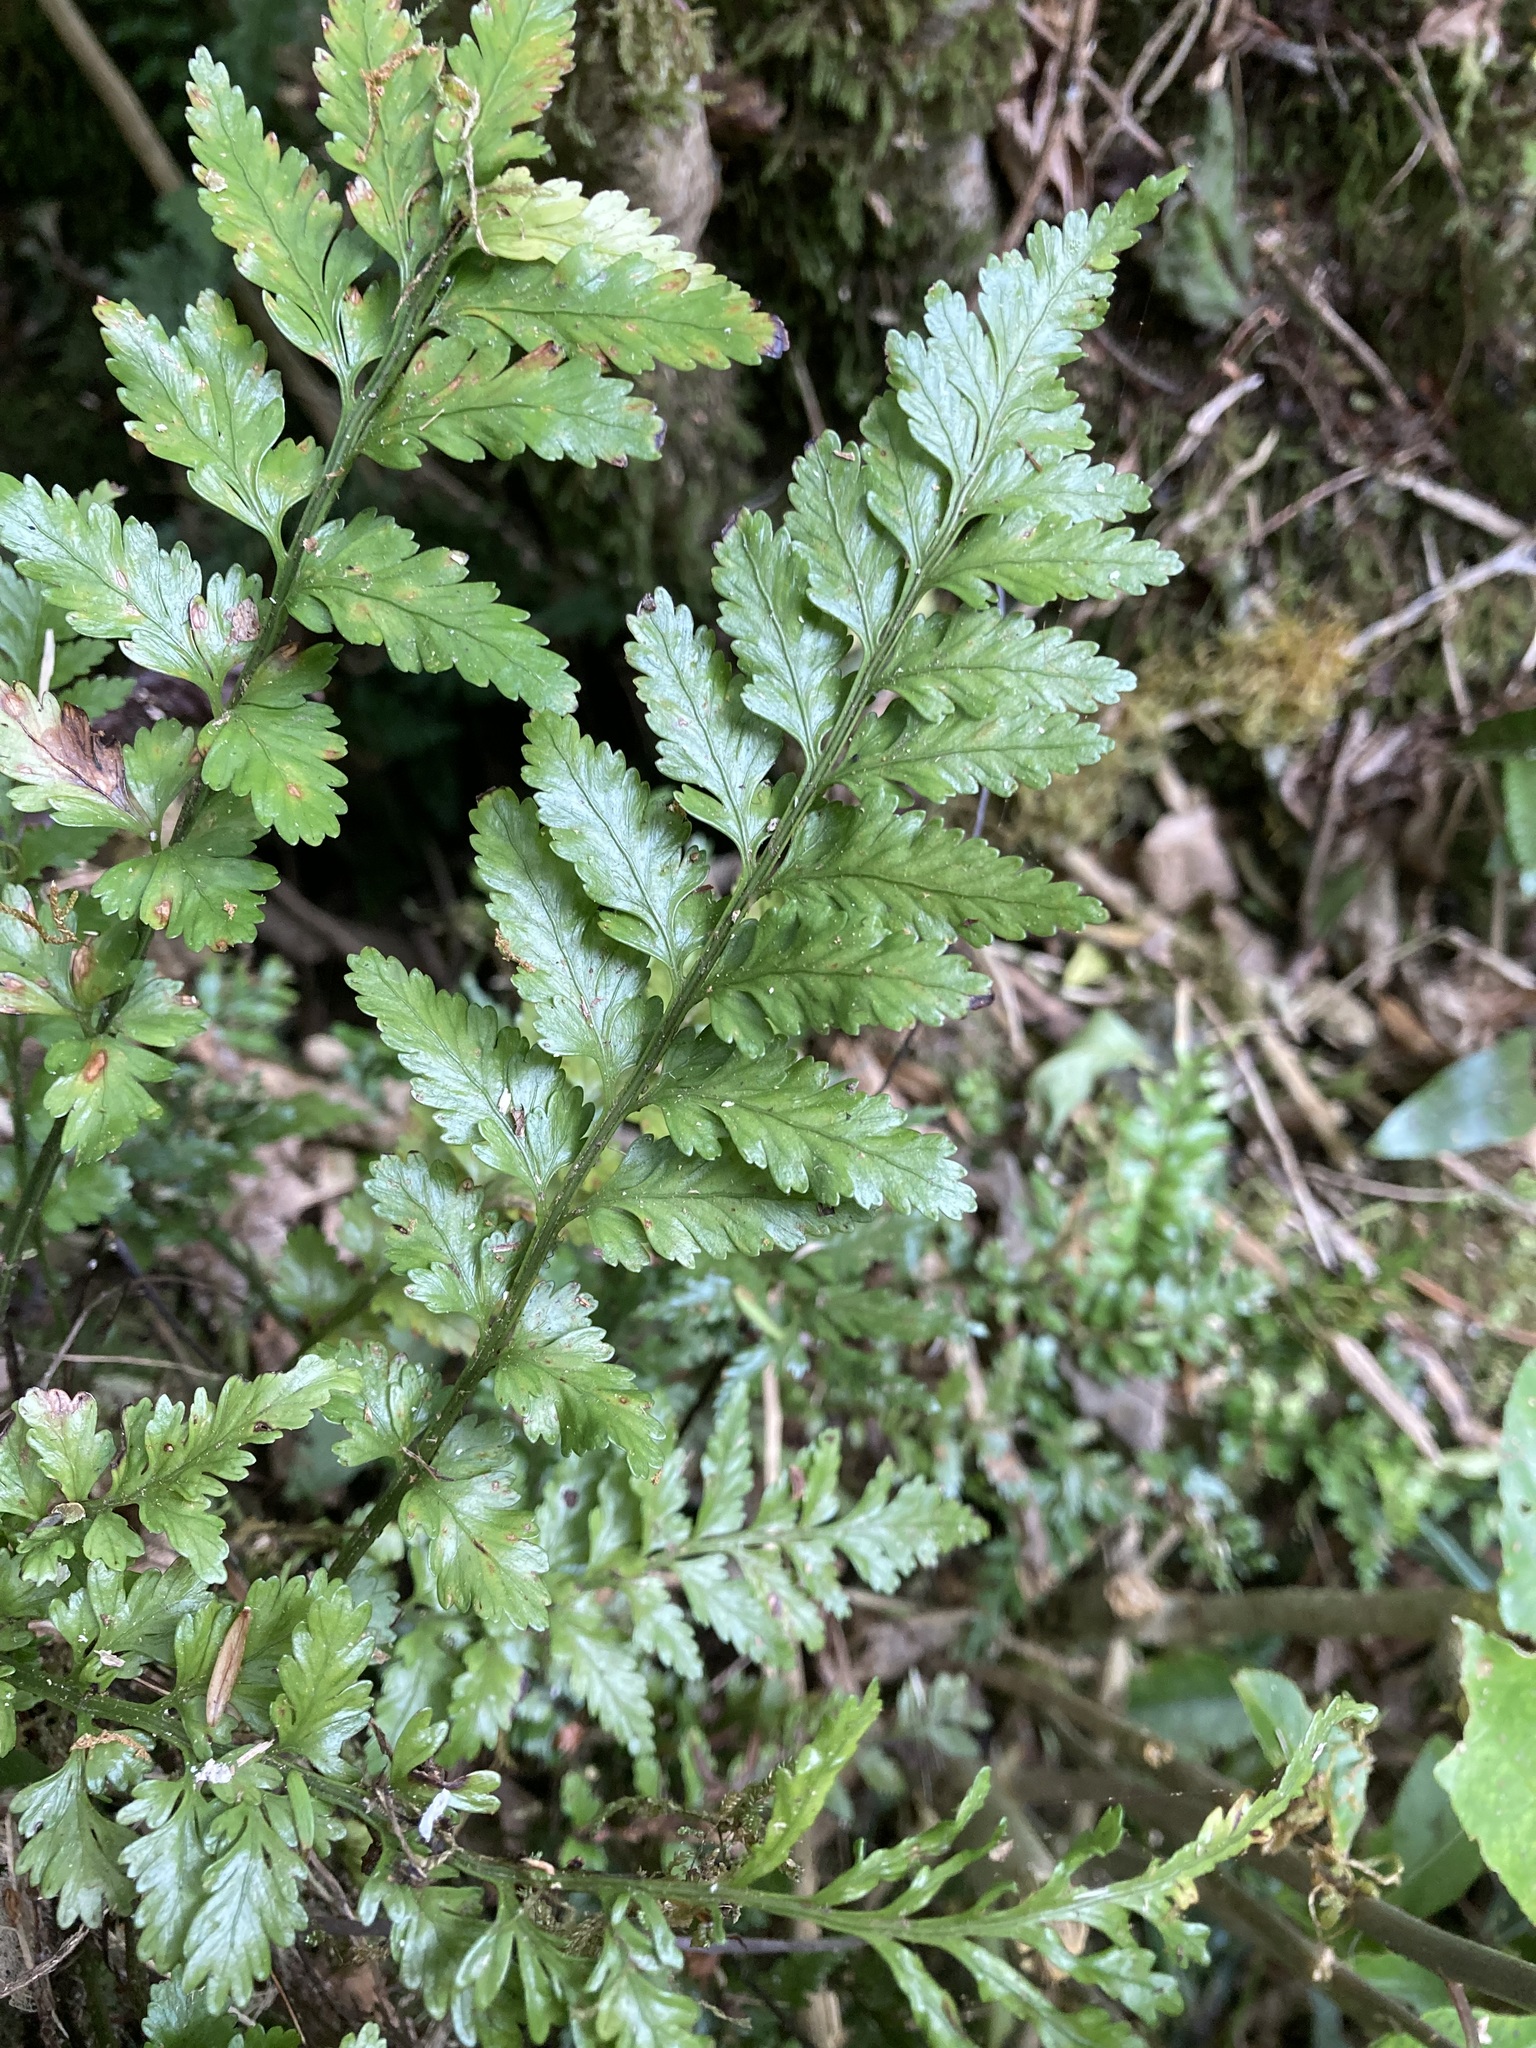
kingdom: Plantae
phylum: Tracheophyta
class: Polypodiopsida
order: Polypodiales
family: Aspleniaceae
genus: Asplenium
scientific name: Asplenium lamprophyllum
